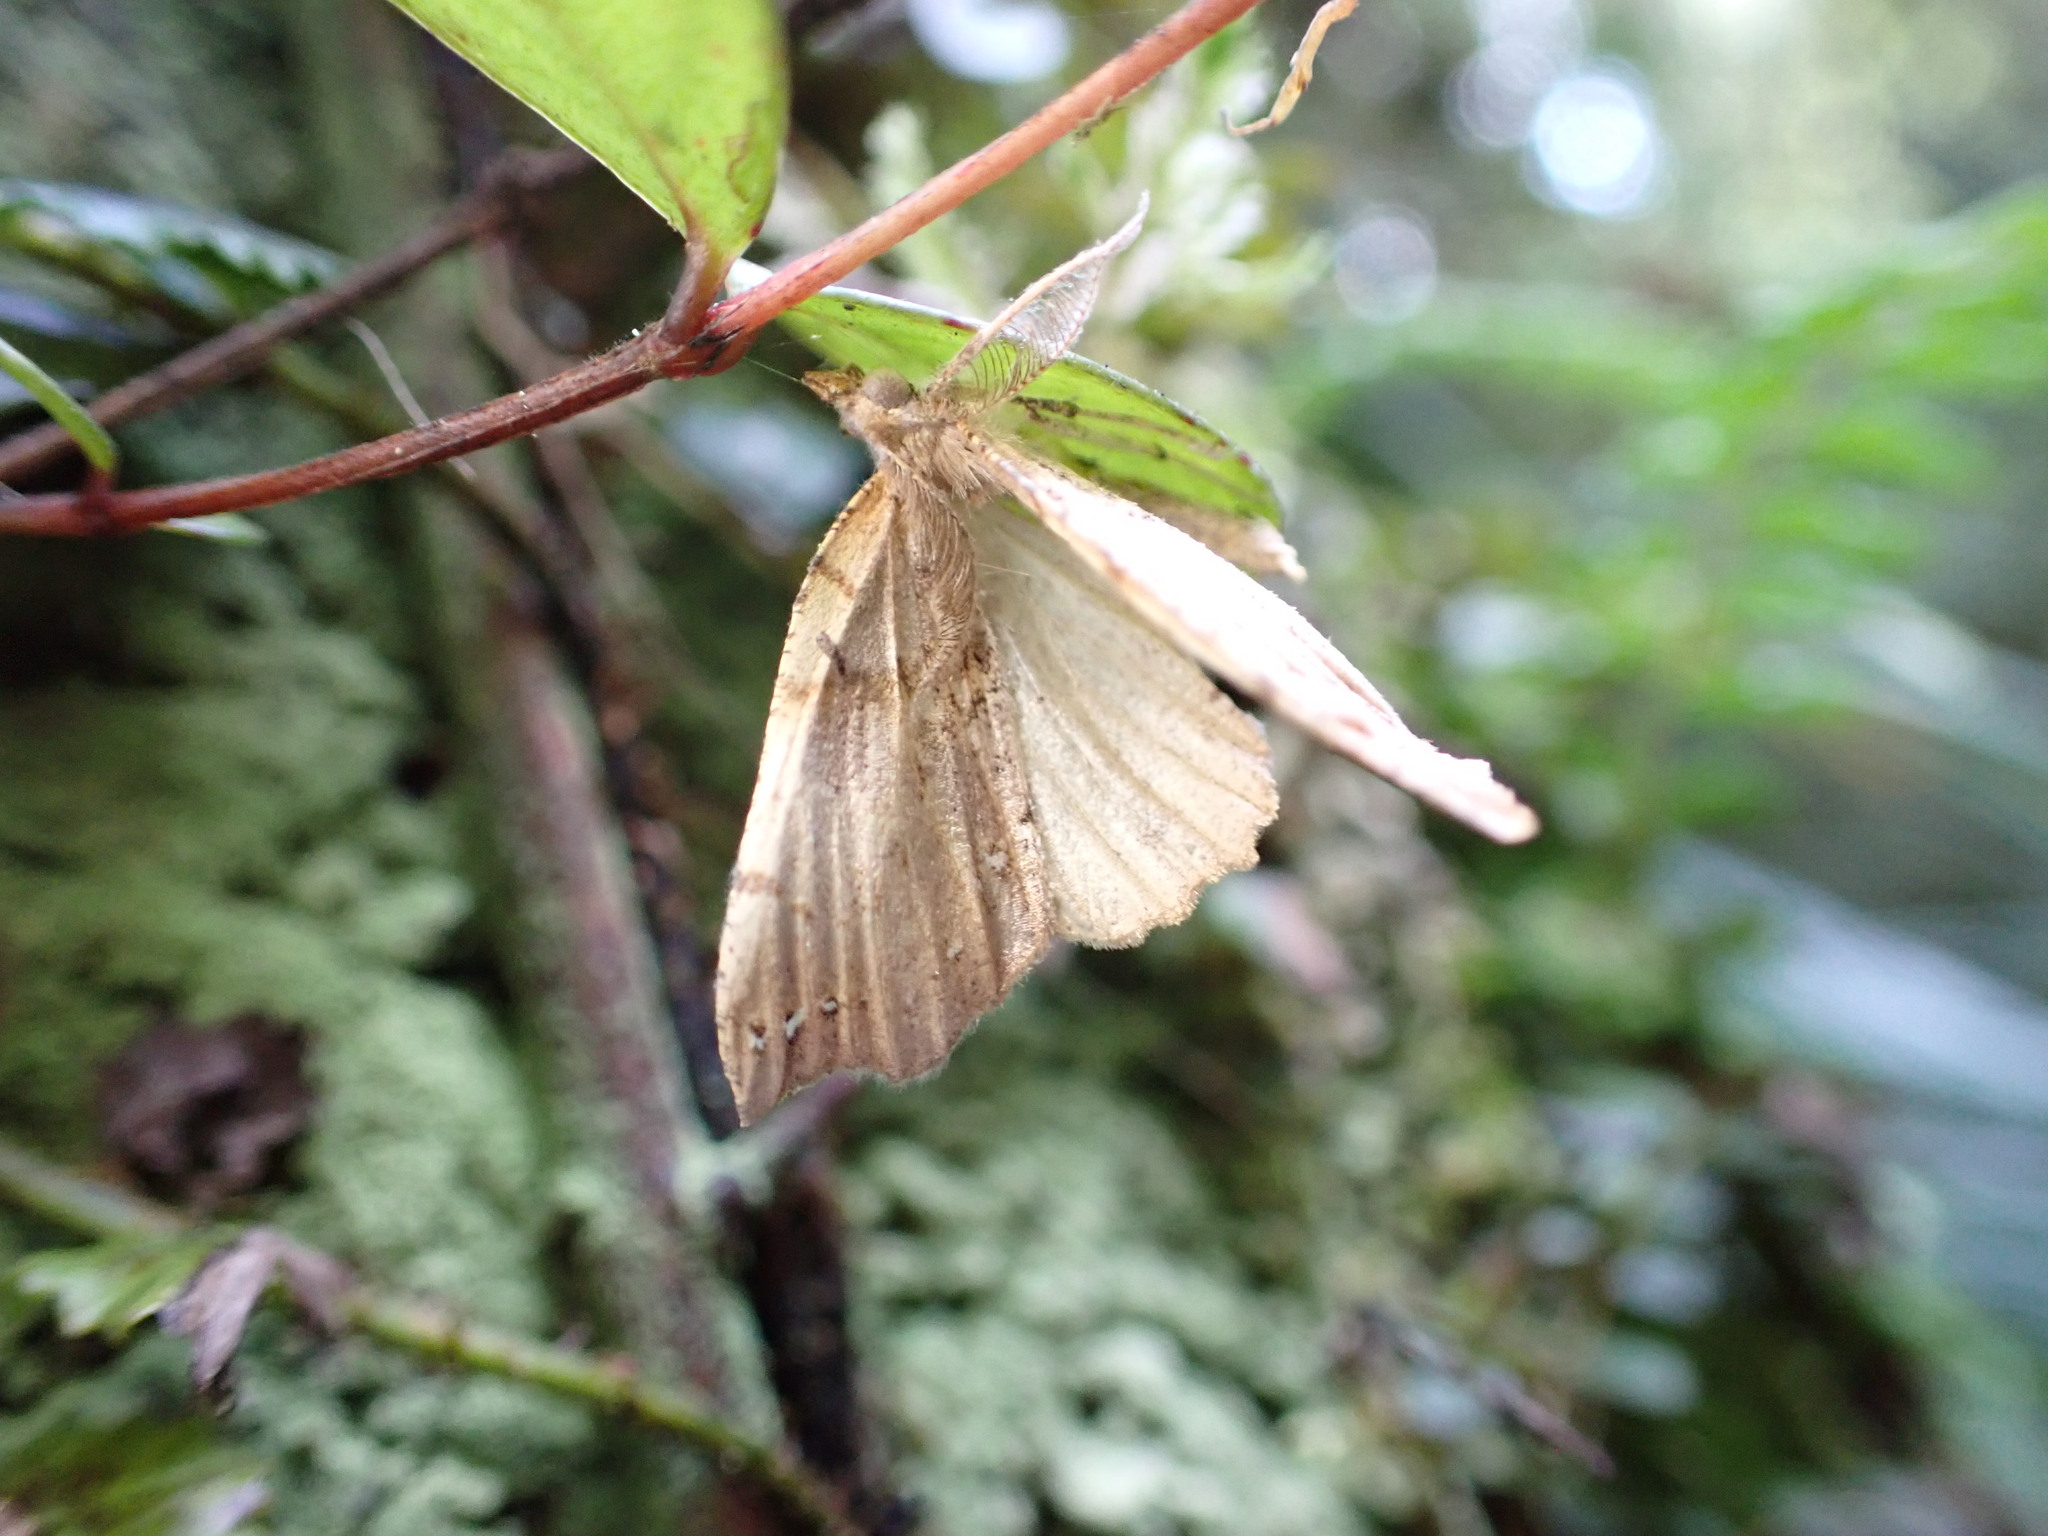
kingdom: Animalia
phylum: Arthropoda
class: Insecta
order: Lepidoptera
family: Geometridae
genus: Chalastra
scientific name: Chalastra pellurgata
